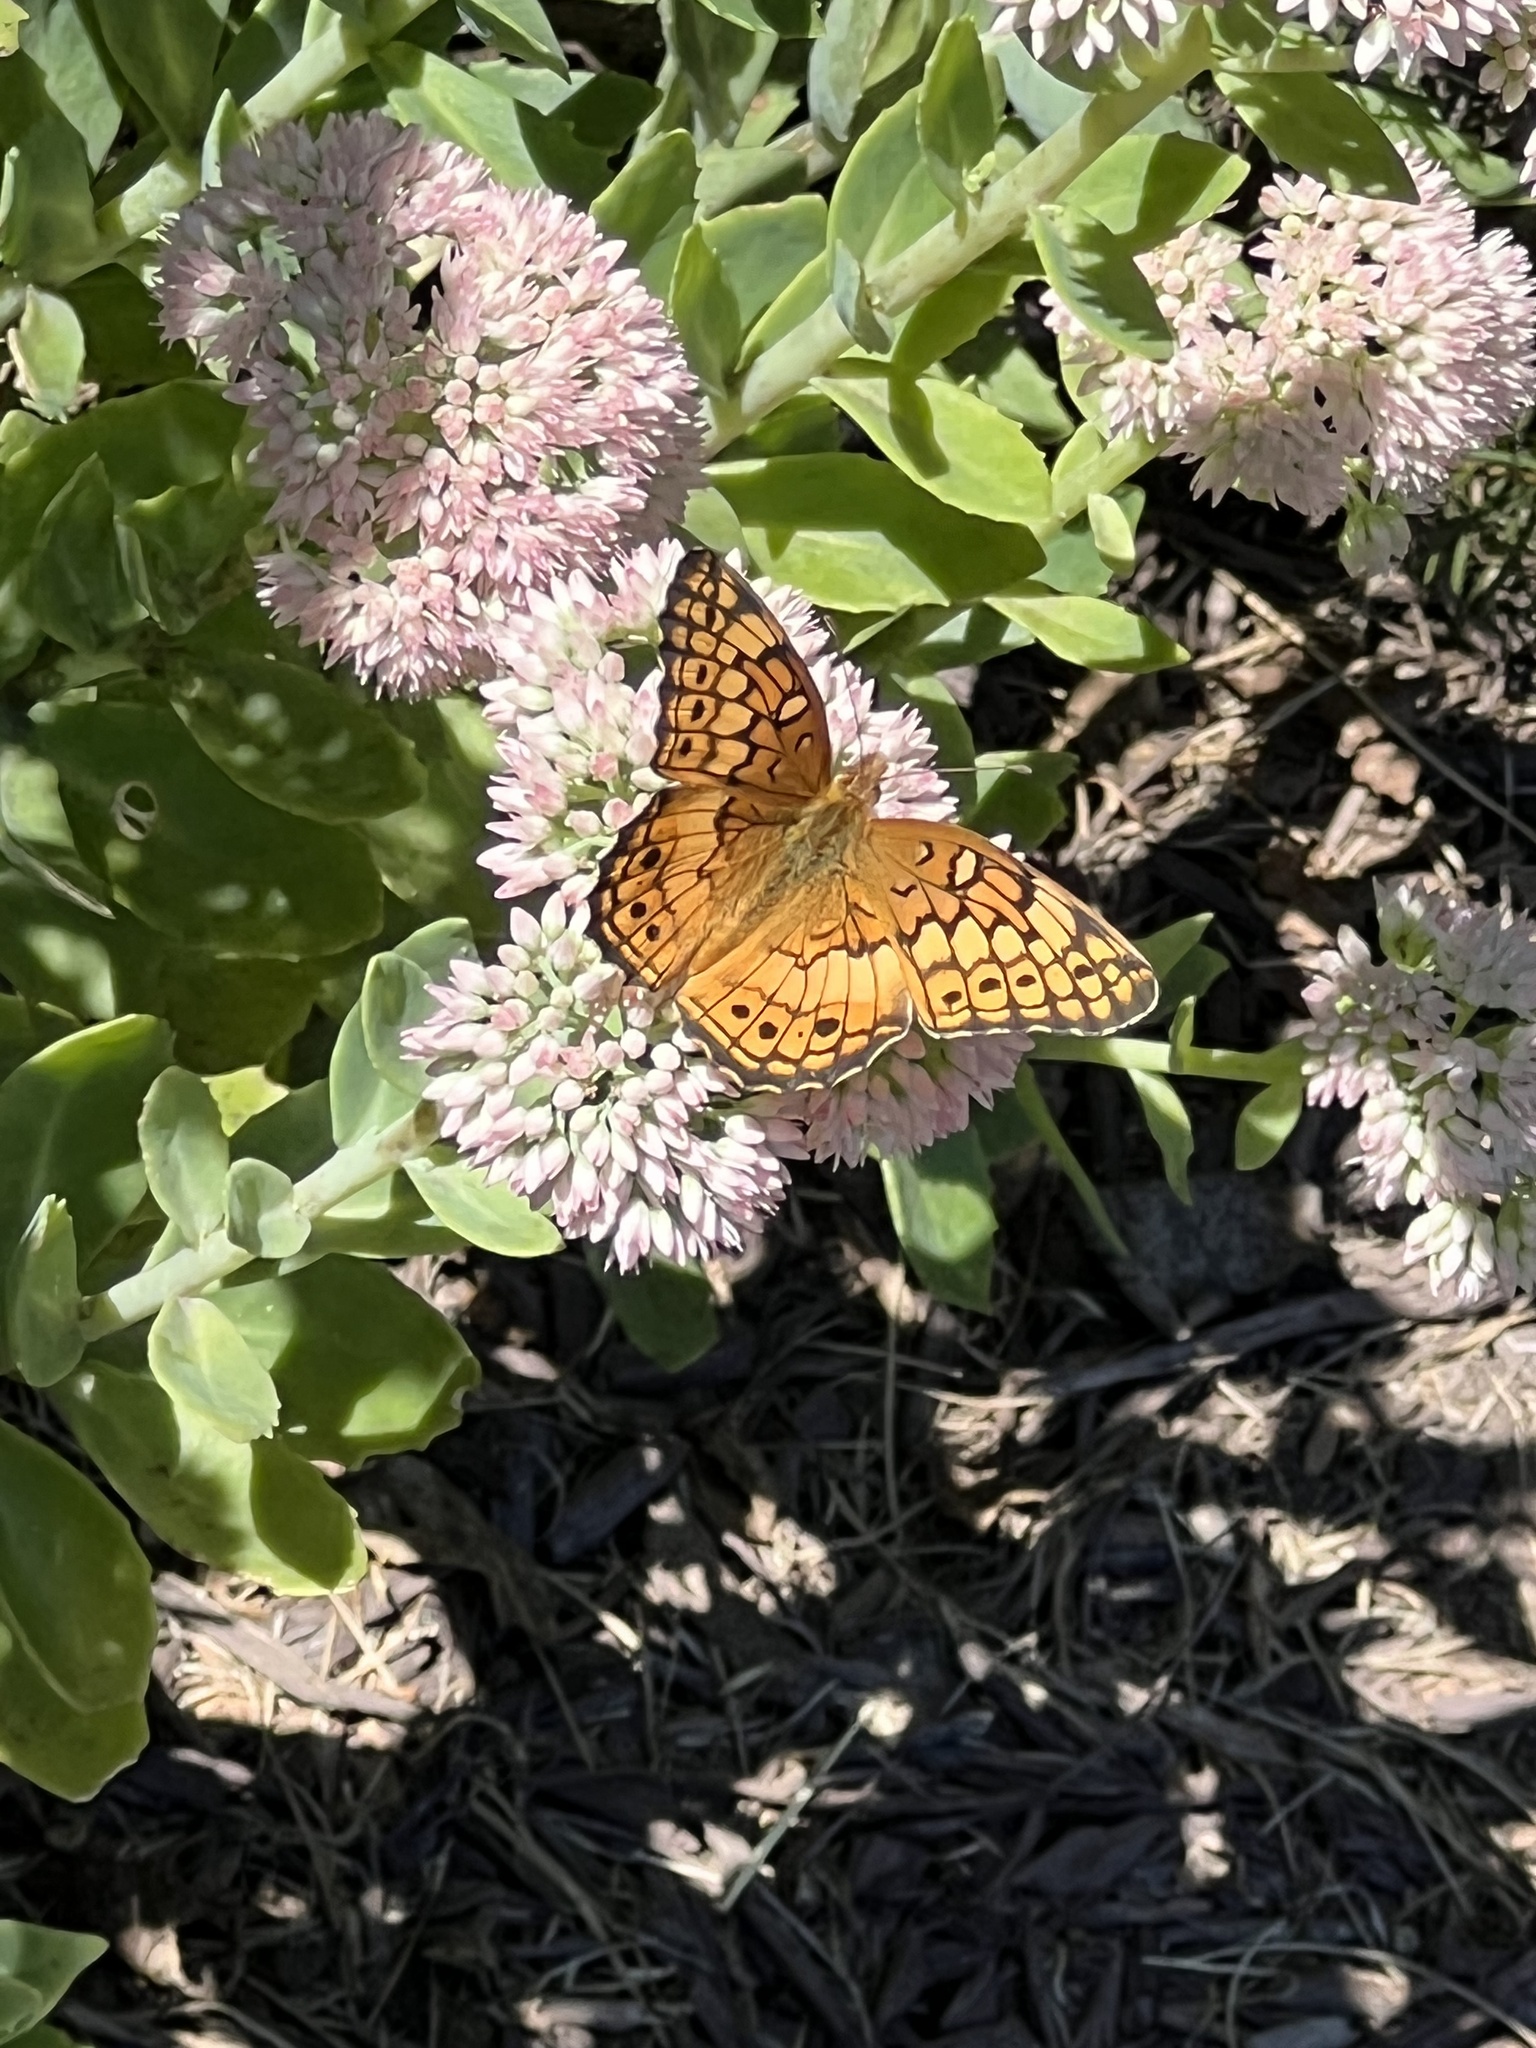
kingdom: Animalia
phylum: Arthropoda
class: Insecta
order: Lepidoptera
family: Nymphalidae
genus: Euptoieta
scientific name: Euptoieta claudia
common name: Variegated fritillary
